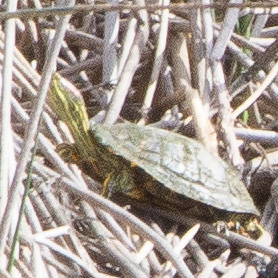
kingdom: Animalia
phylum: Chordata
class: Testudines
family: Emydidae
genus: Trachemys
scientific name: Trachemys scripta
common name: Slider
